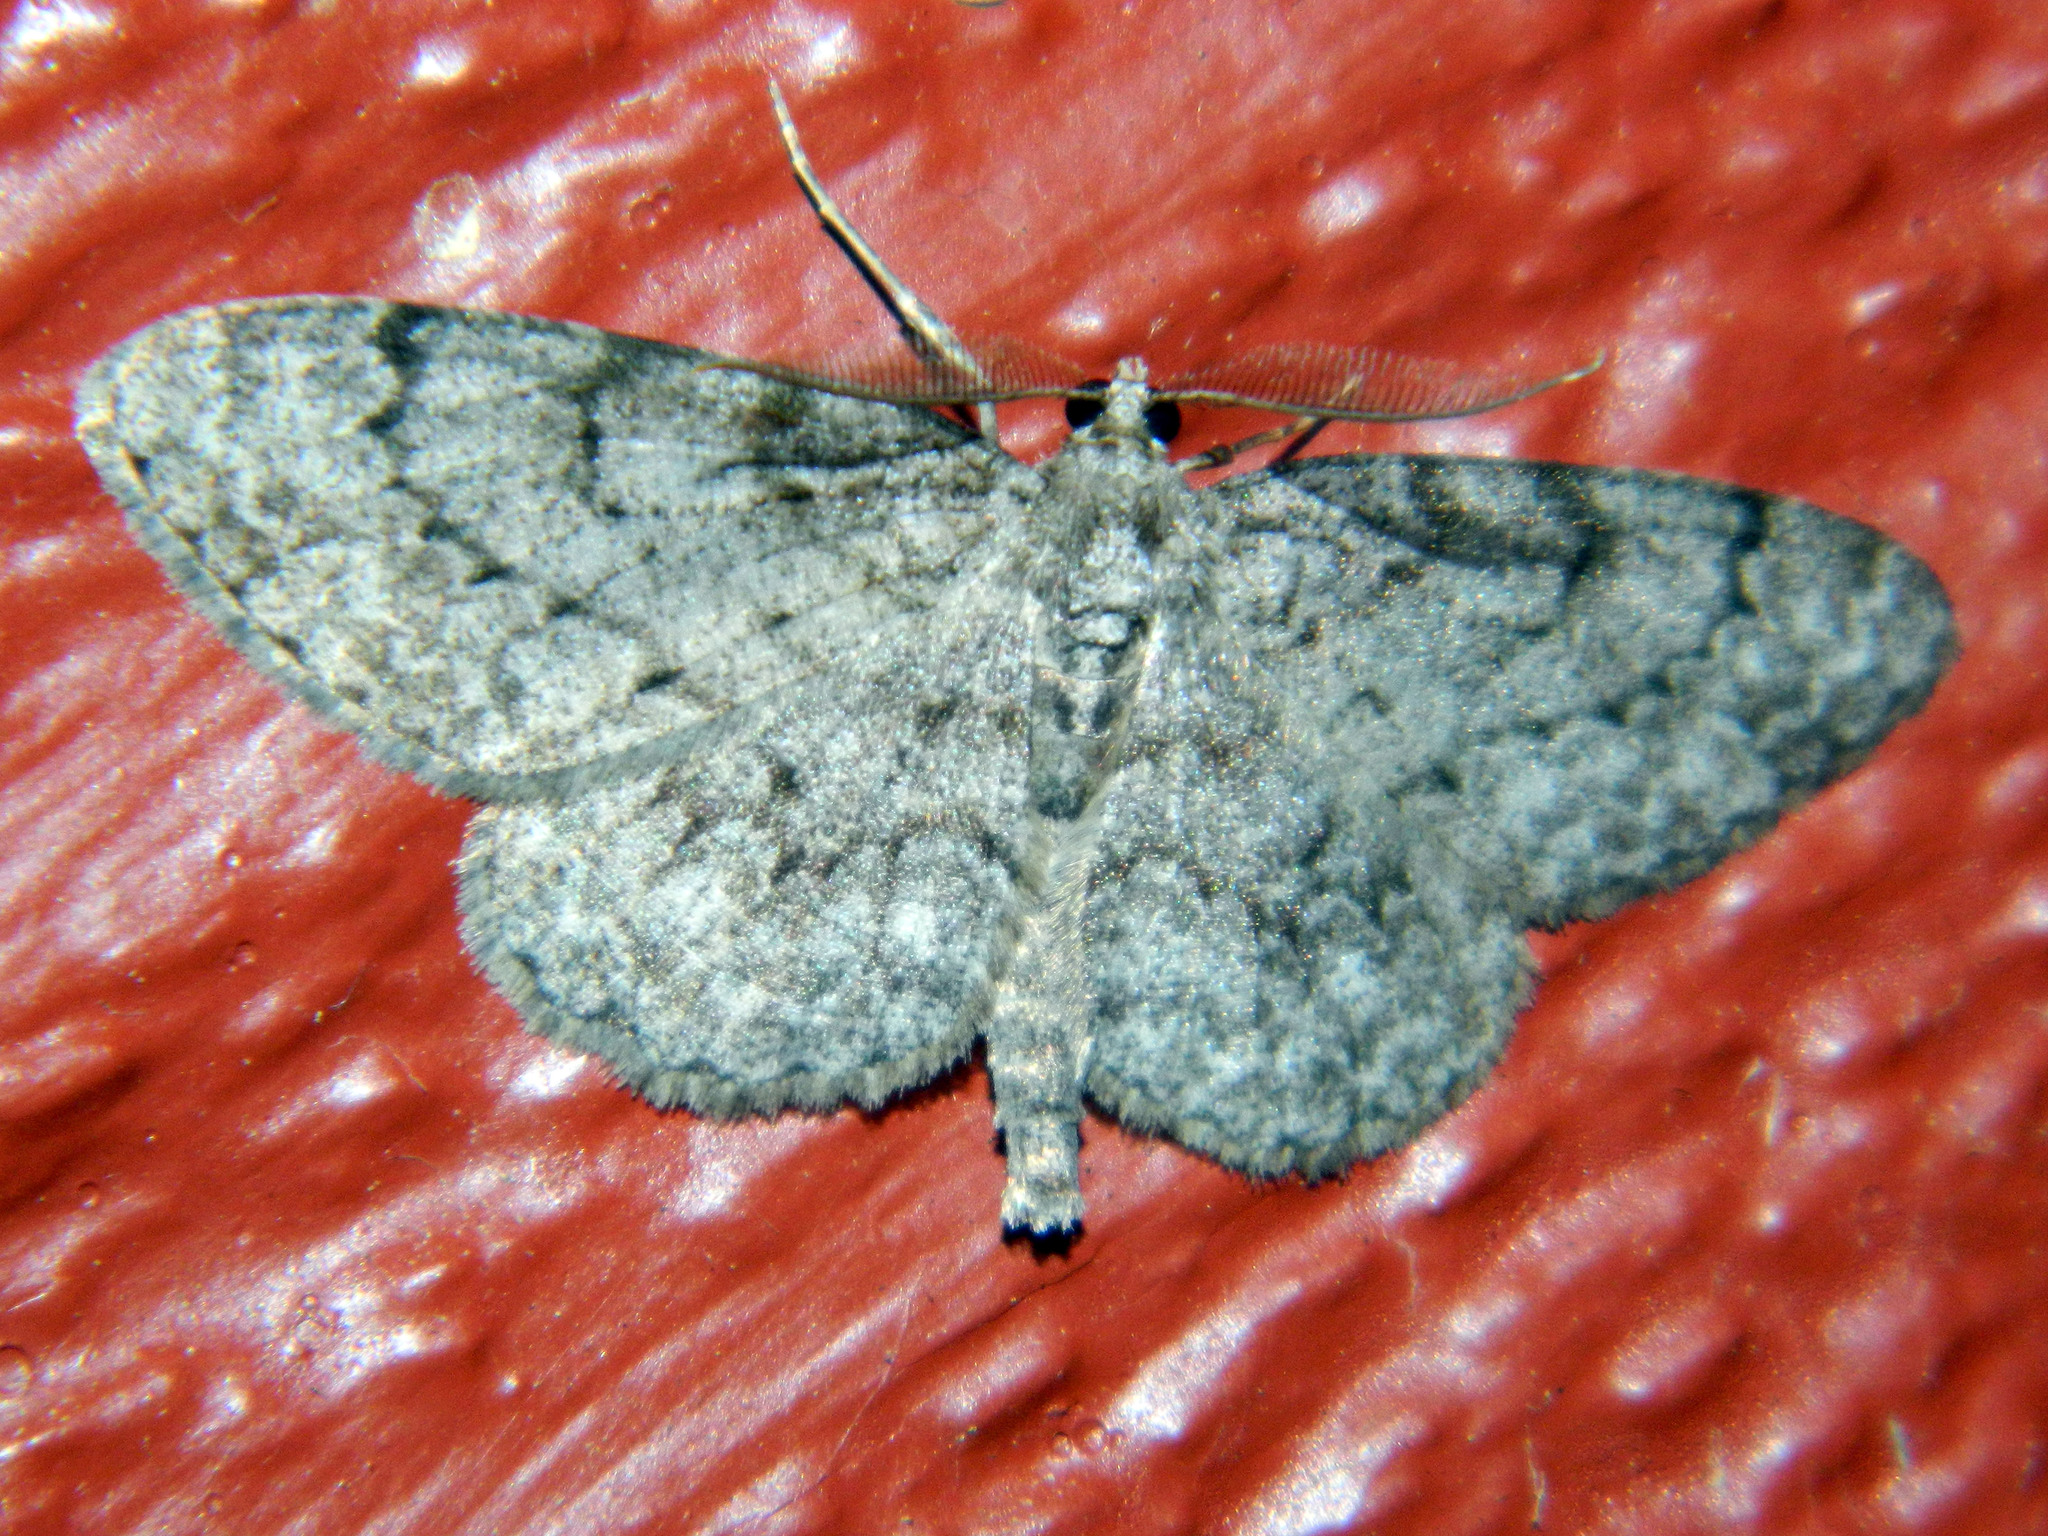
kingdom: Animalia
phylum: Arthropoda
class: Insecta
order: Lepidoptera
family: Geometridae
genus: Protoboarmia
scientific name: Protoboarmia porcelaria
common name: Porcelain gray
